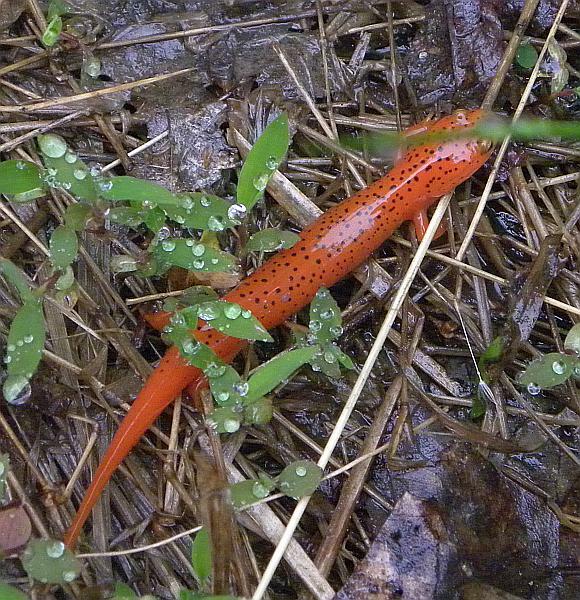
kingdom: Animalia
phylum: Chordata
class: Amphibia
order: Caudata
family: Plethodontidae
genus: Pseudotriton
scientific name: Pseudotriton ruber
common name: Red salamander
